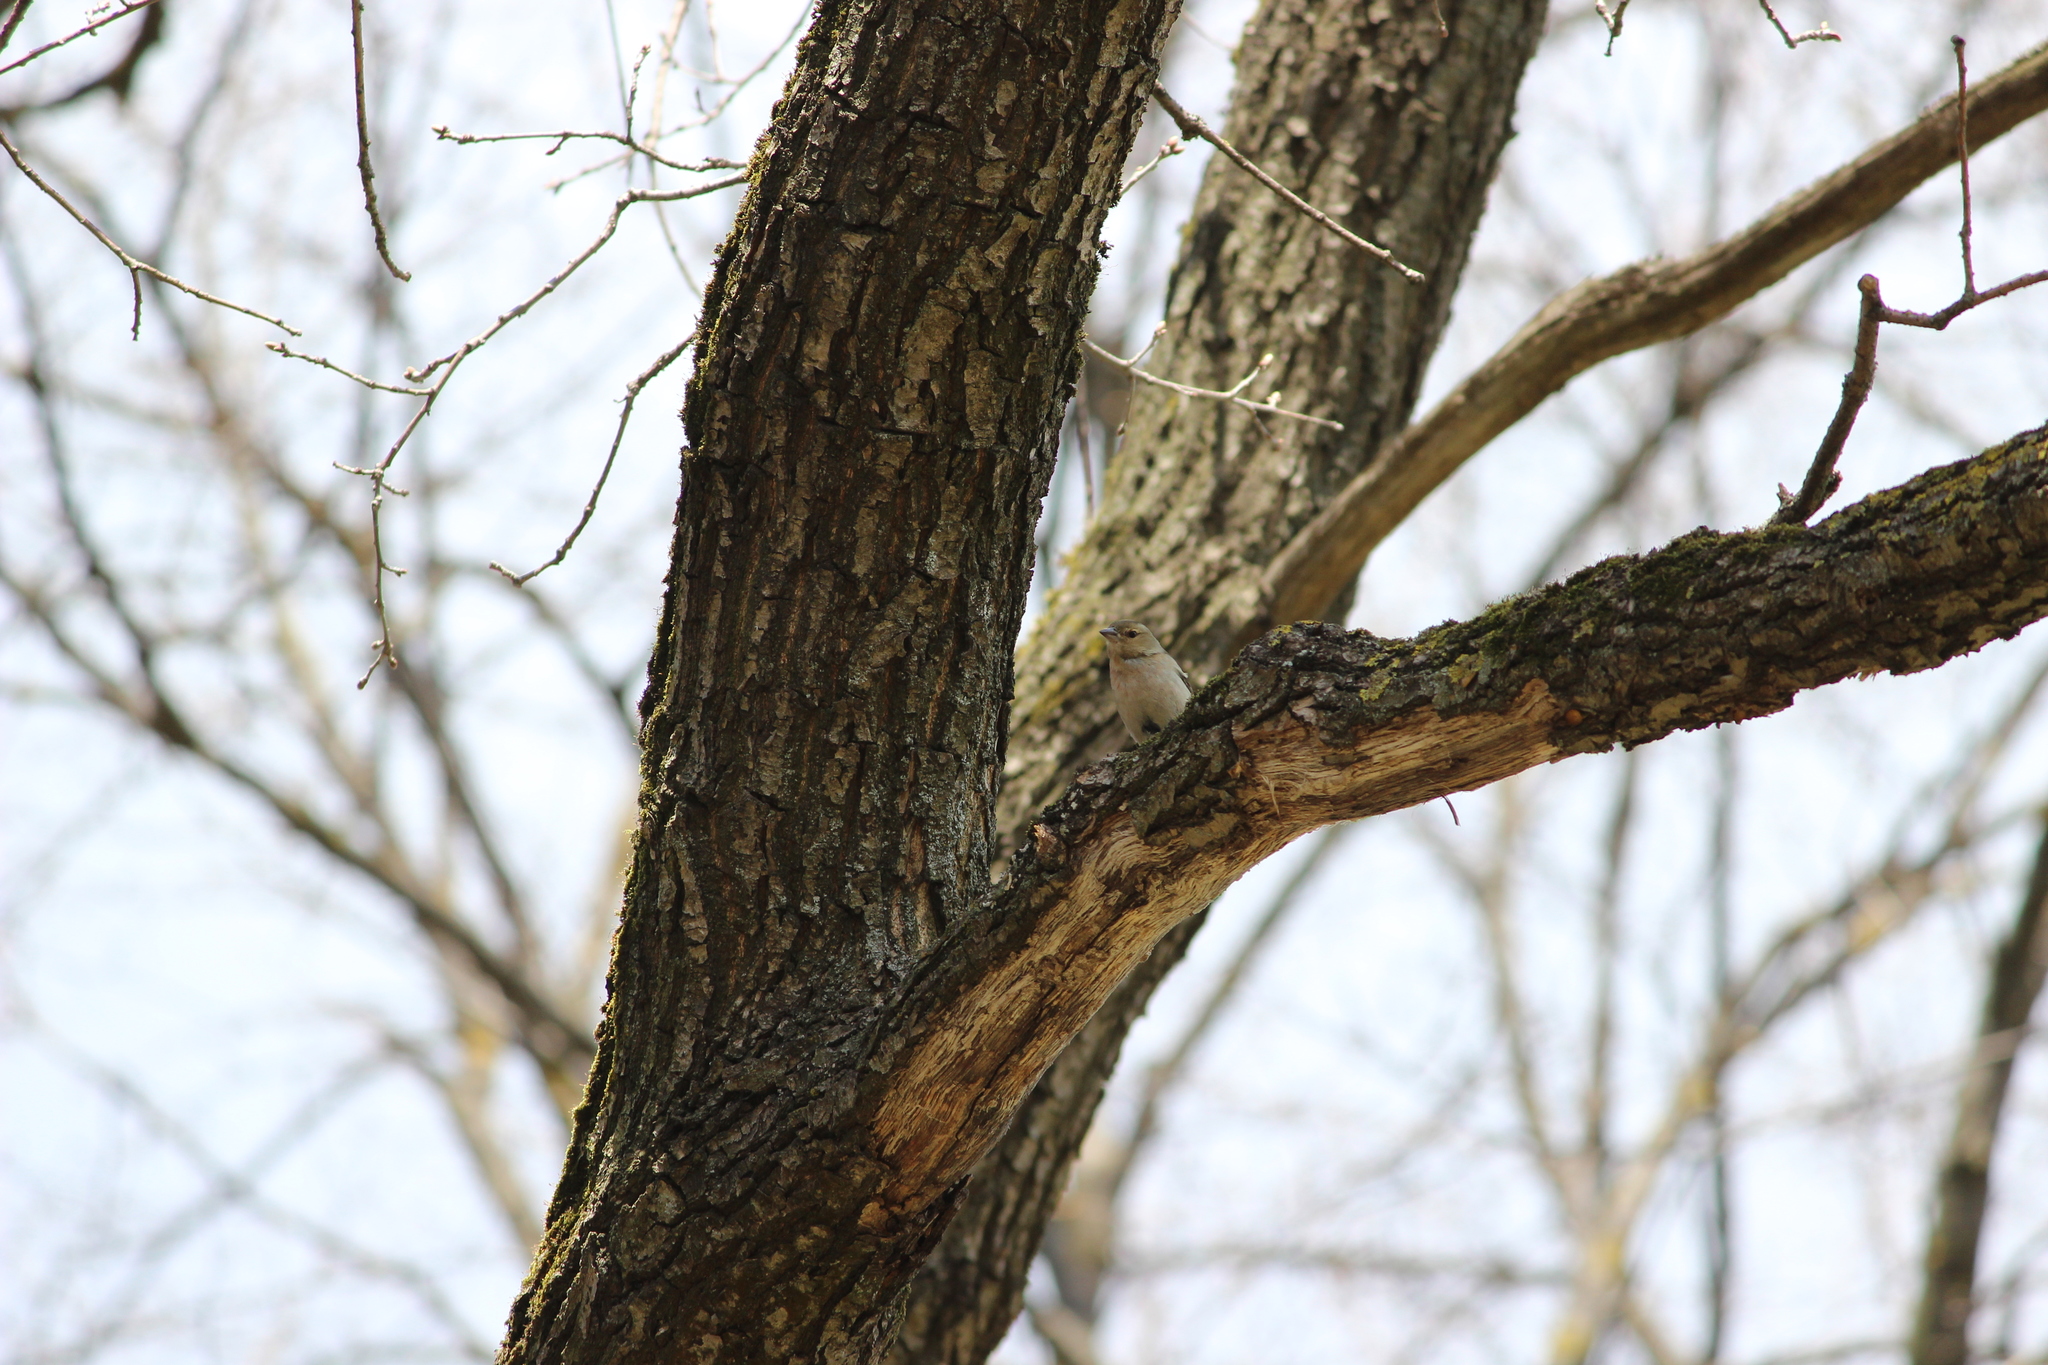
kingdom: Animalia
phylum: Chordata
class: Aves
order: Passeriformes
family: Fringillidae
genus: Fringilla
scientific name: Fringilla coelebs
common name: Common chaffinch
